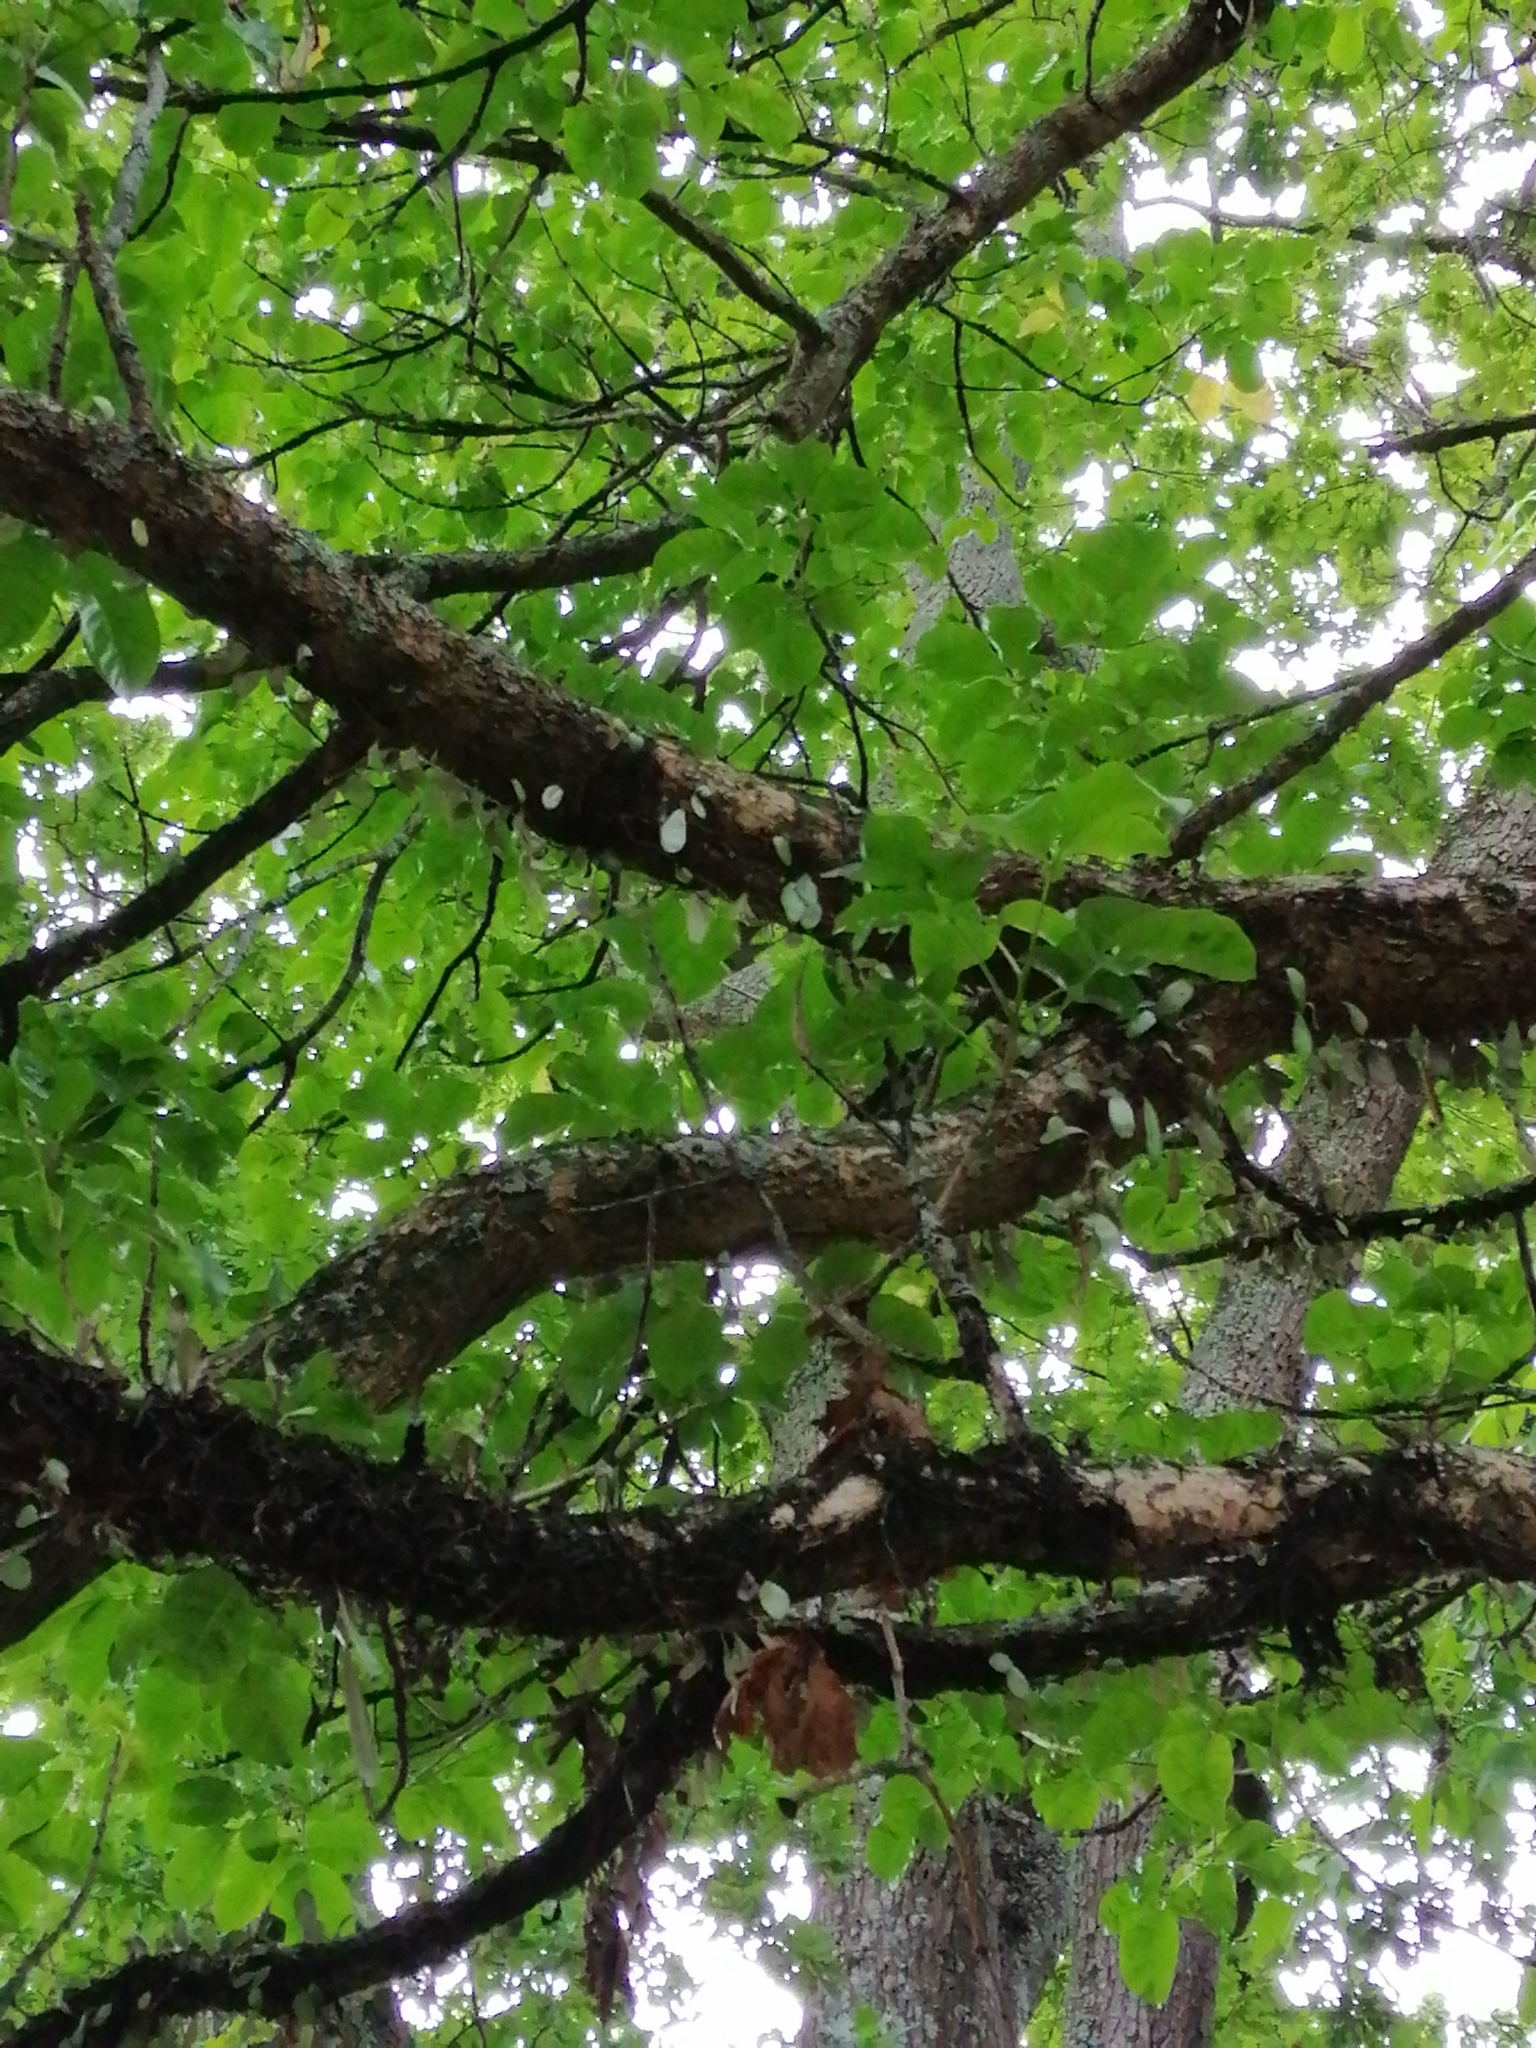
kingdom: Plantae
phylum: Tracheophyta
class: Polypodiopsida
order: Polypodiales
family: Polypodiaceae
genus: Pyrrosia
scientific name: Pyrrosia eleagnifolia
